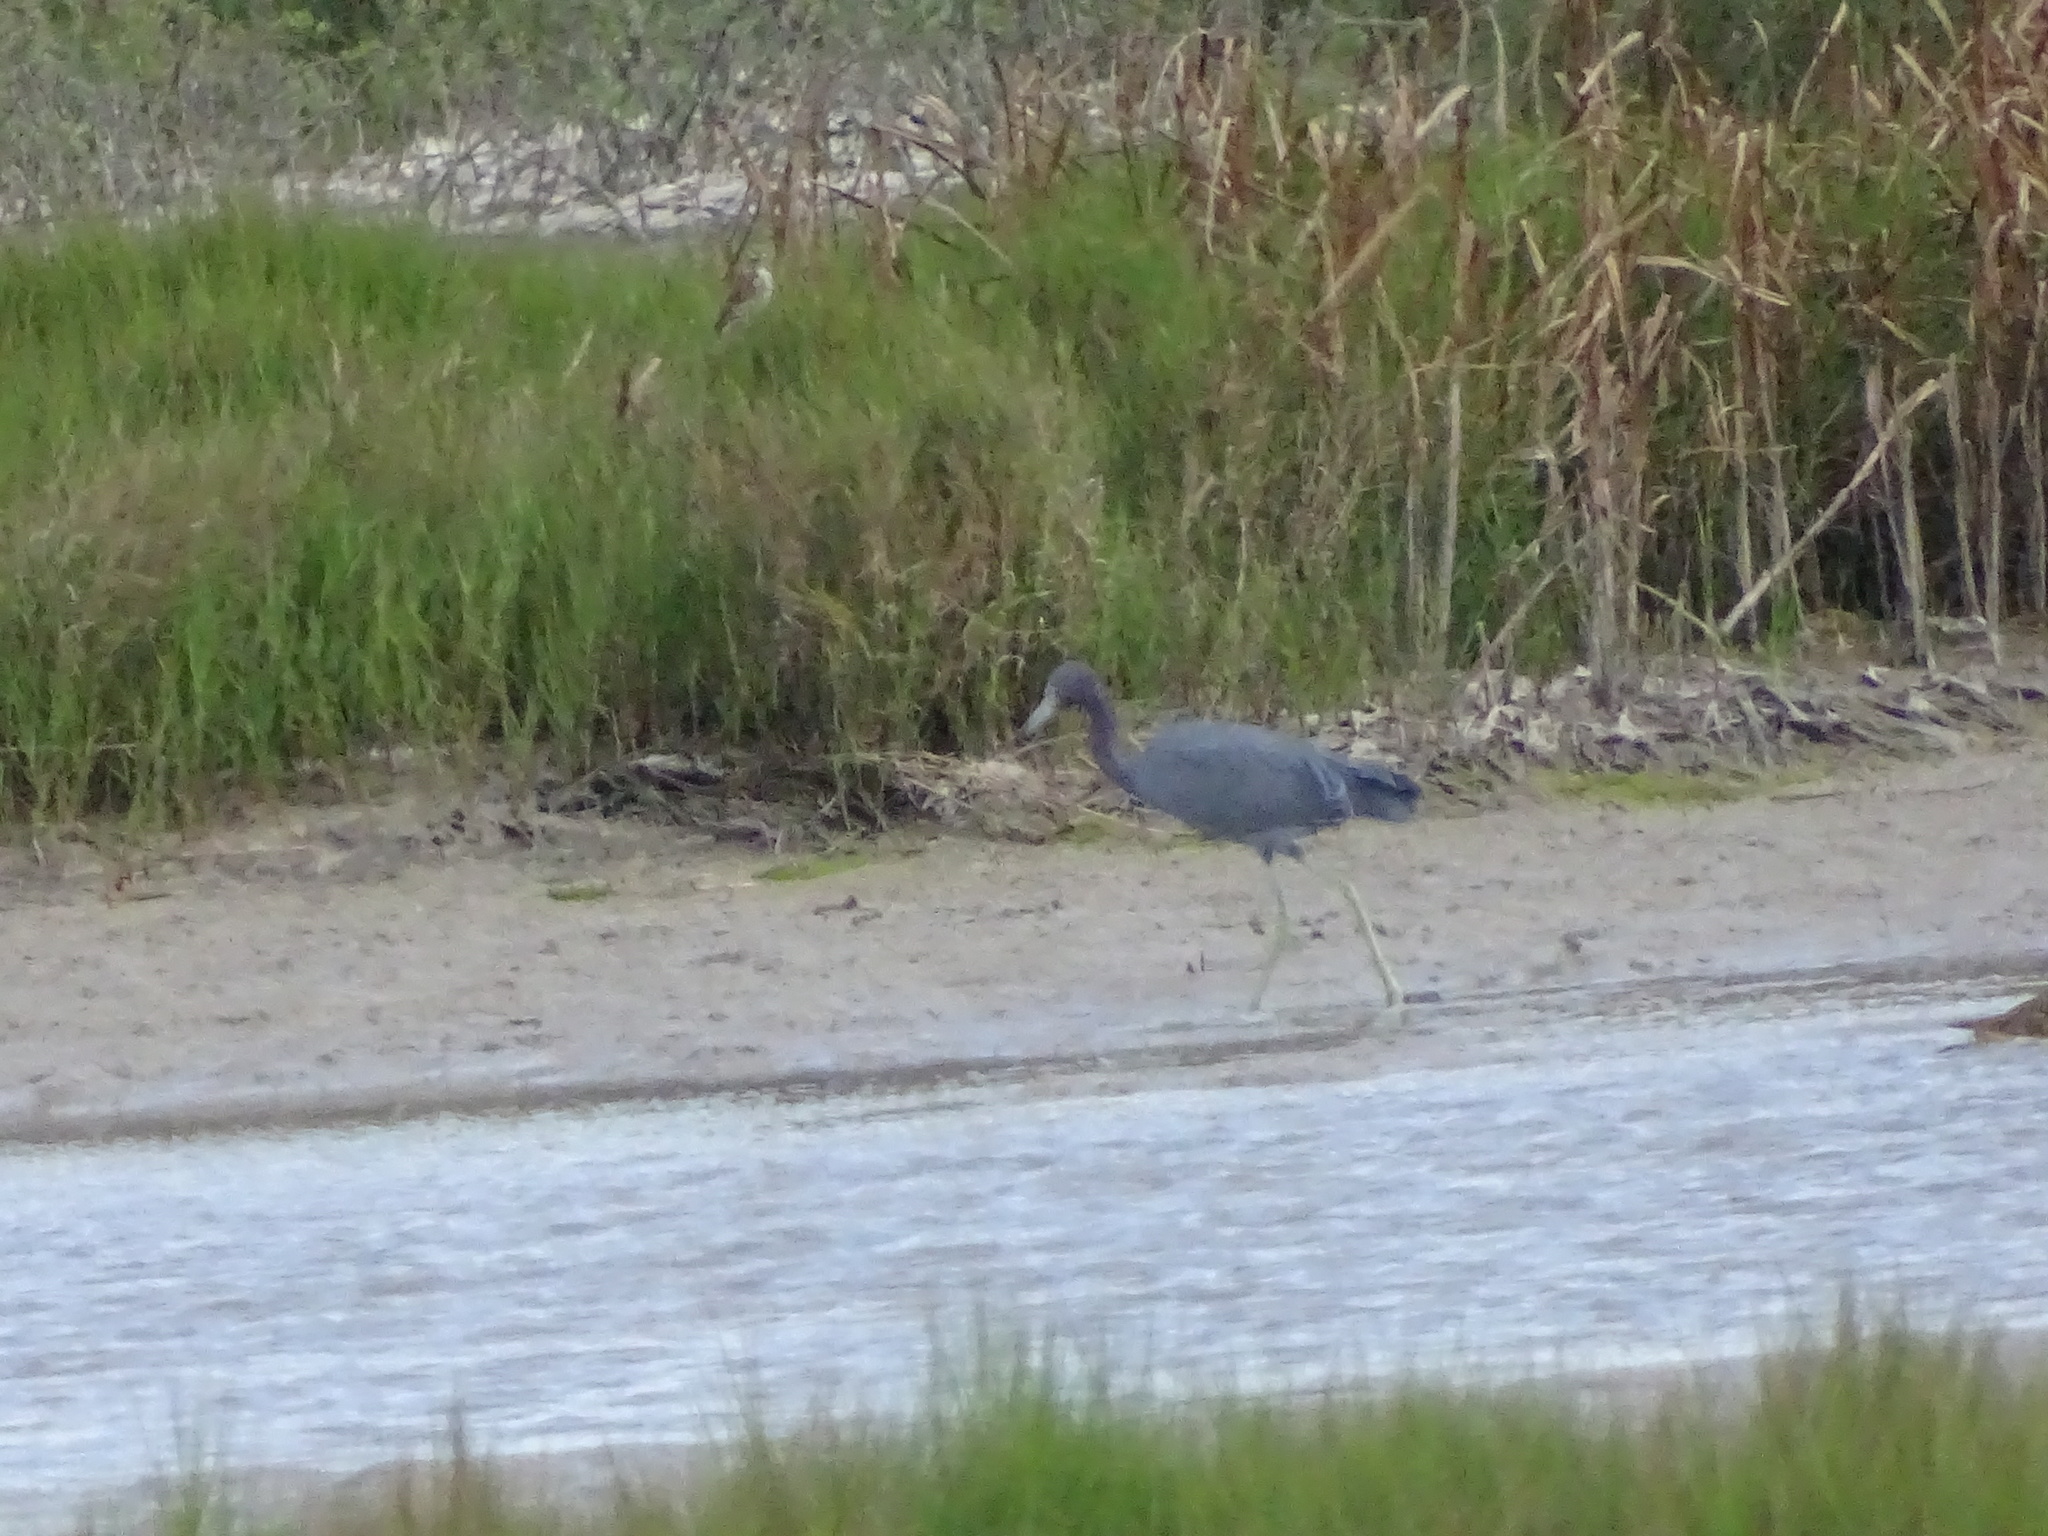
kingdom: Animalia
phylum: Chordata
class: Aves
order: Pelecaniformes
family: Ardeidae
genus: Egretta
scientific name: Egretta caerulea
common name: Little blue heron
